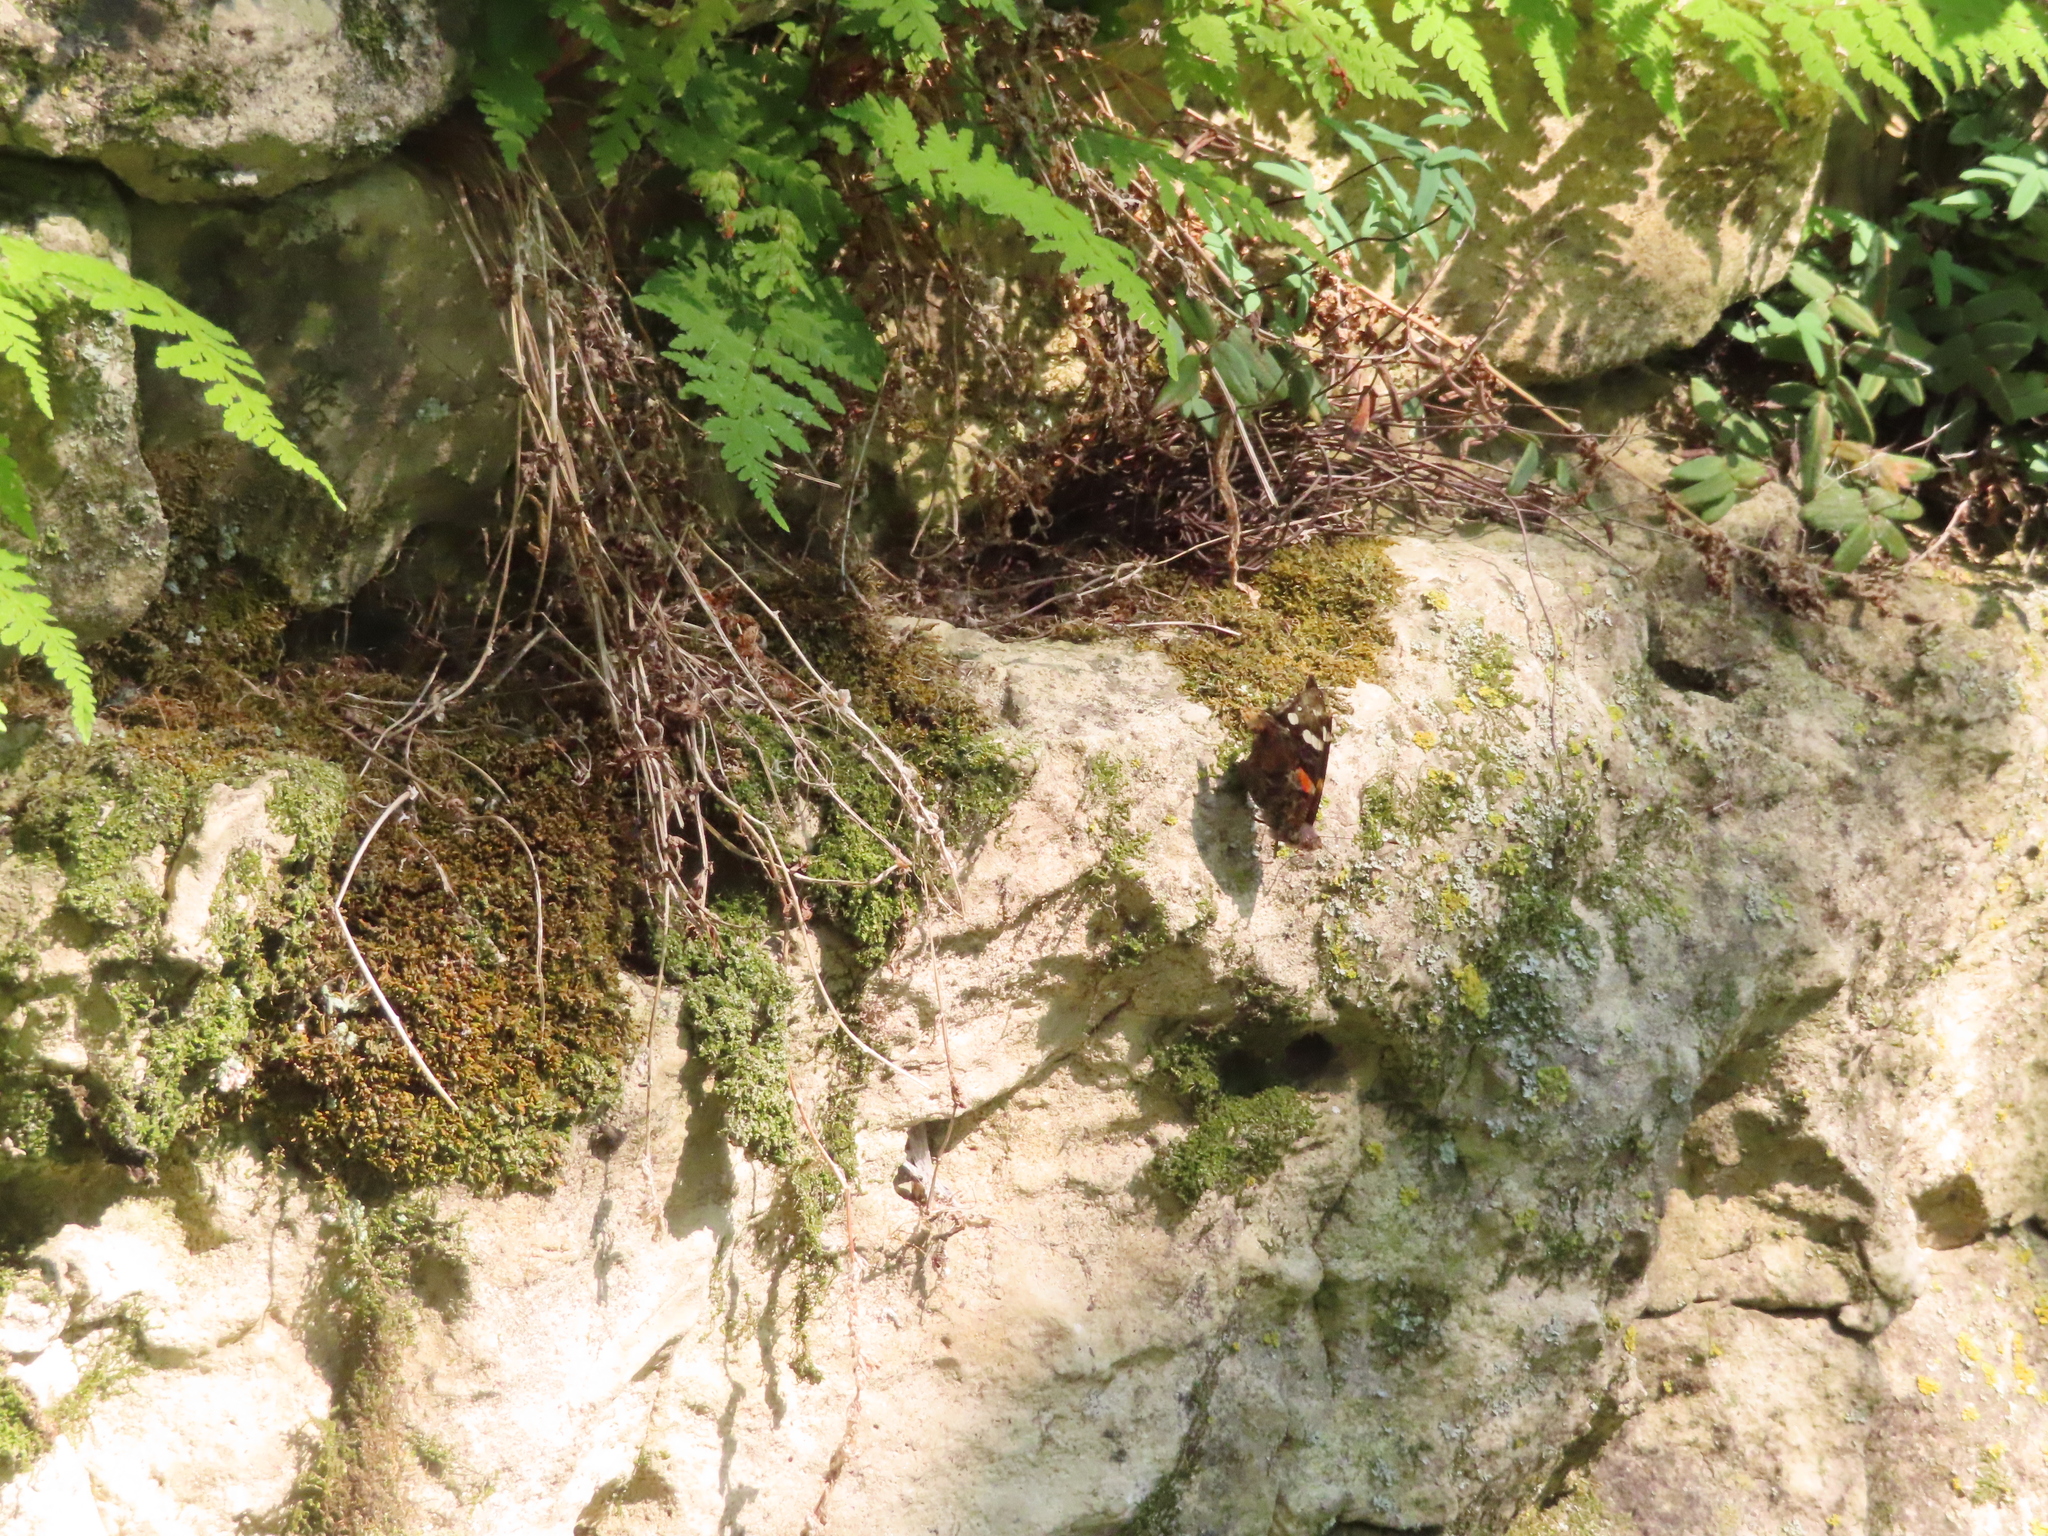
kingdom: Animalia
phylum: Arthropoda
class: Insecta
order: Lepidoptera
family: Nymphalidae
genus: Vanessa
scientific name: Vanessa atalanta
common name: Red admiral
